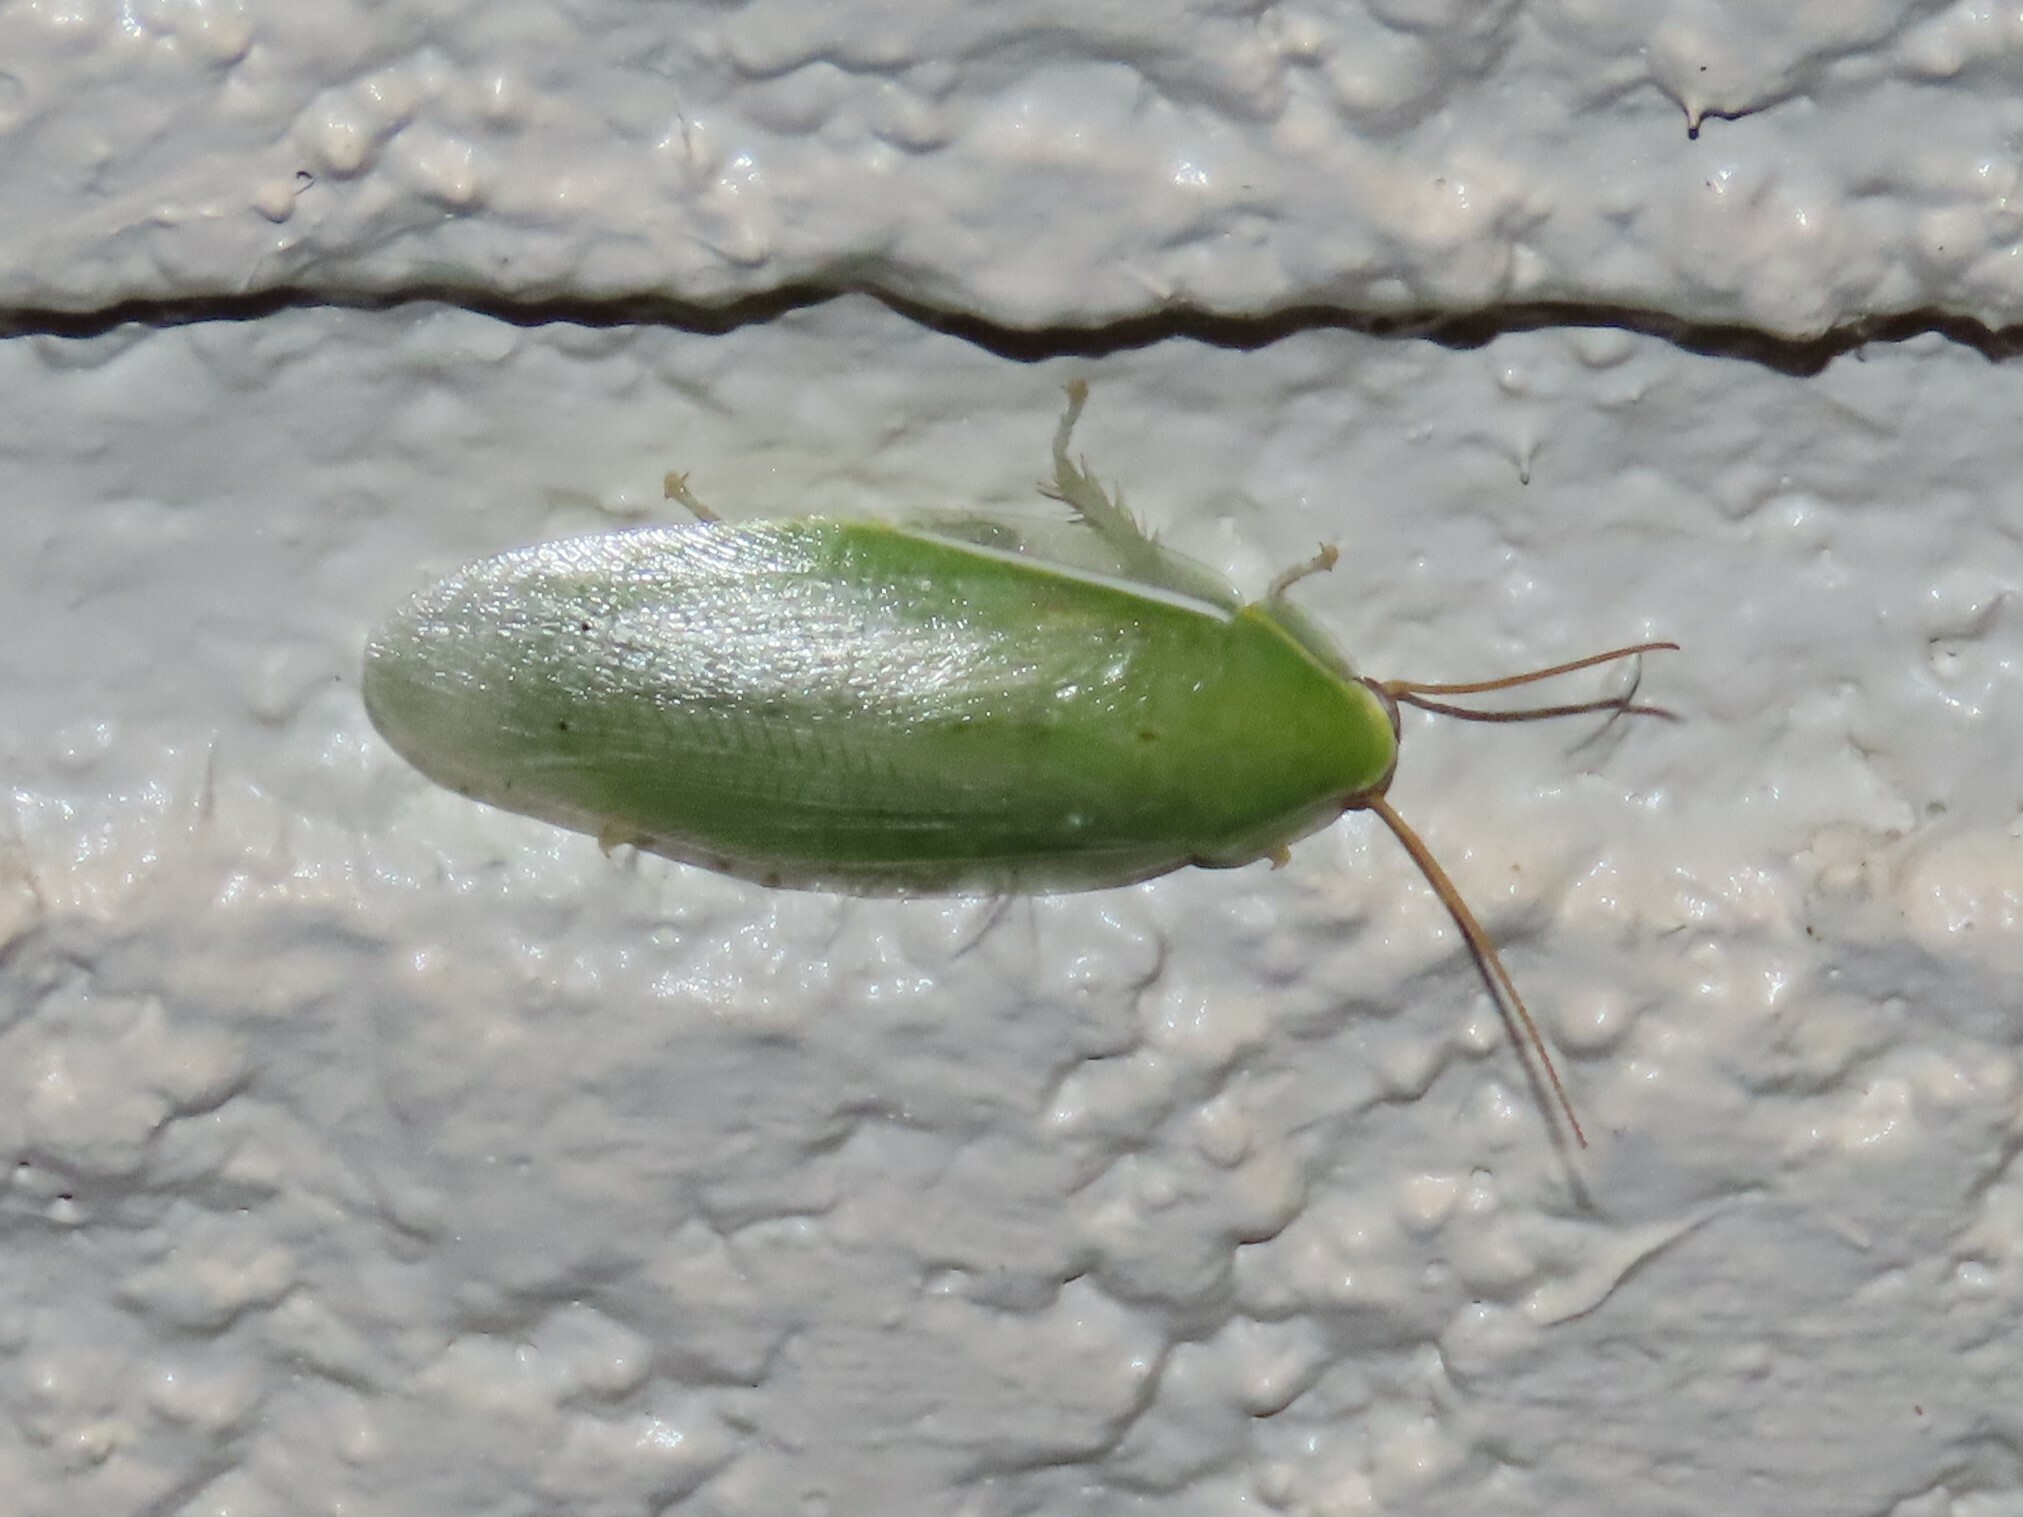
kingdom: Animalia
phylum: Arthropoda
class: Insecta
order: Blattodea
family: Blaberidae
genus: Panchlora
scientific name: Panchlora nivea
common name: Cuban cockroach
